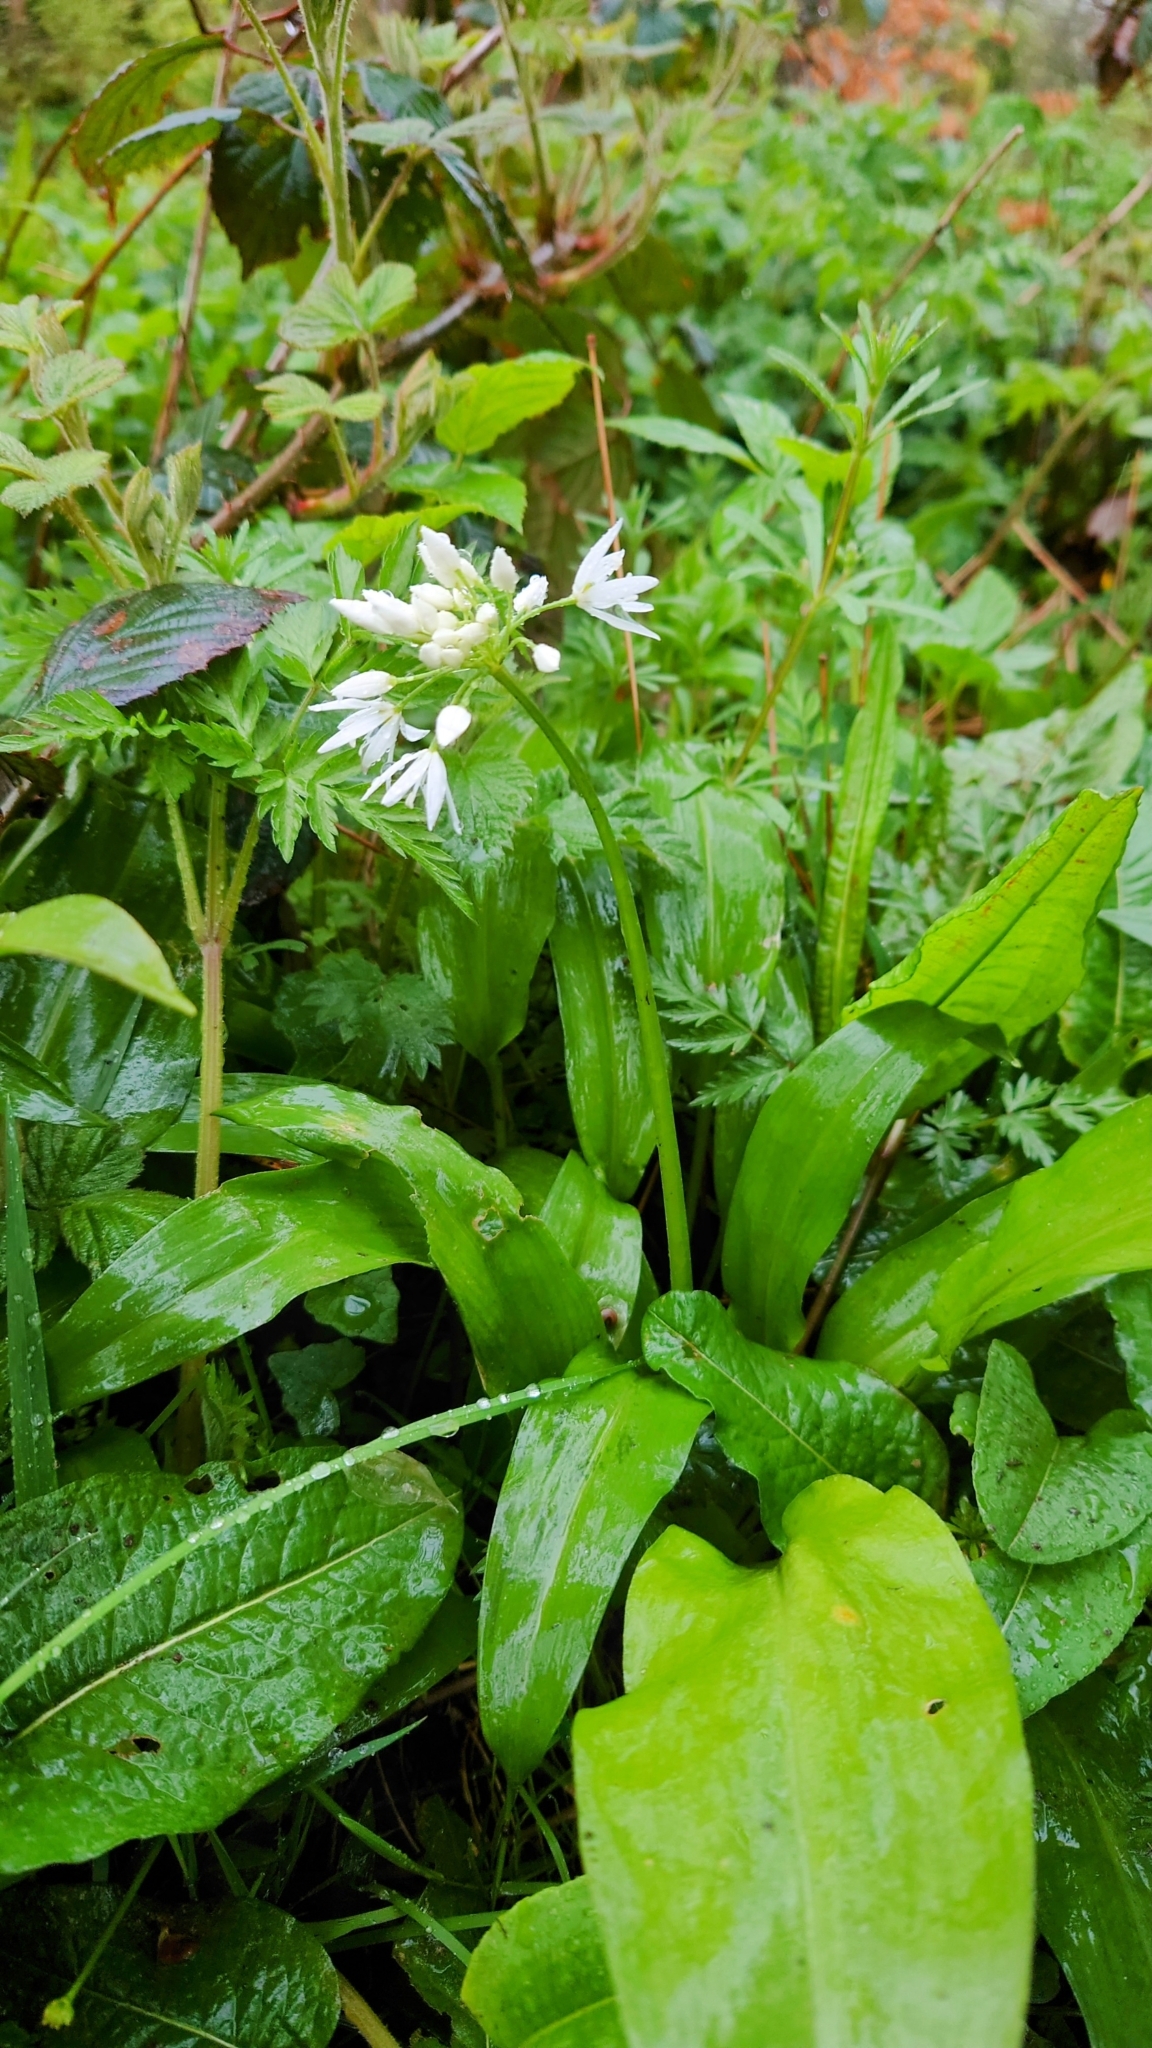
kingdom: Plantae
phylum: Tracheophyta
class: Liliopsida
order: Asparagales
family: Amaryllidaceae
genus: Allium
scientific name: Allium ursinum
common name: Ramsons
